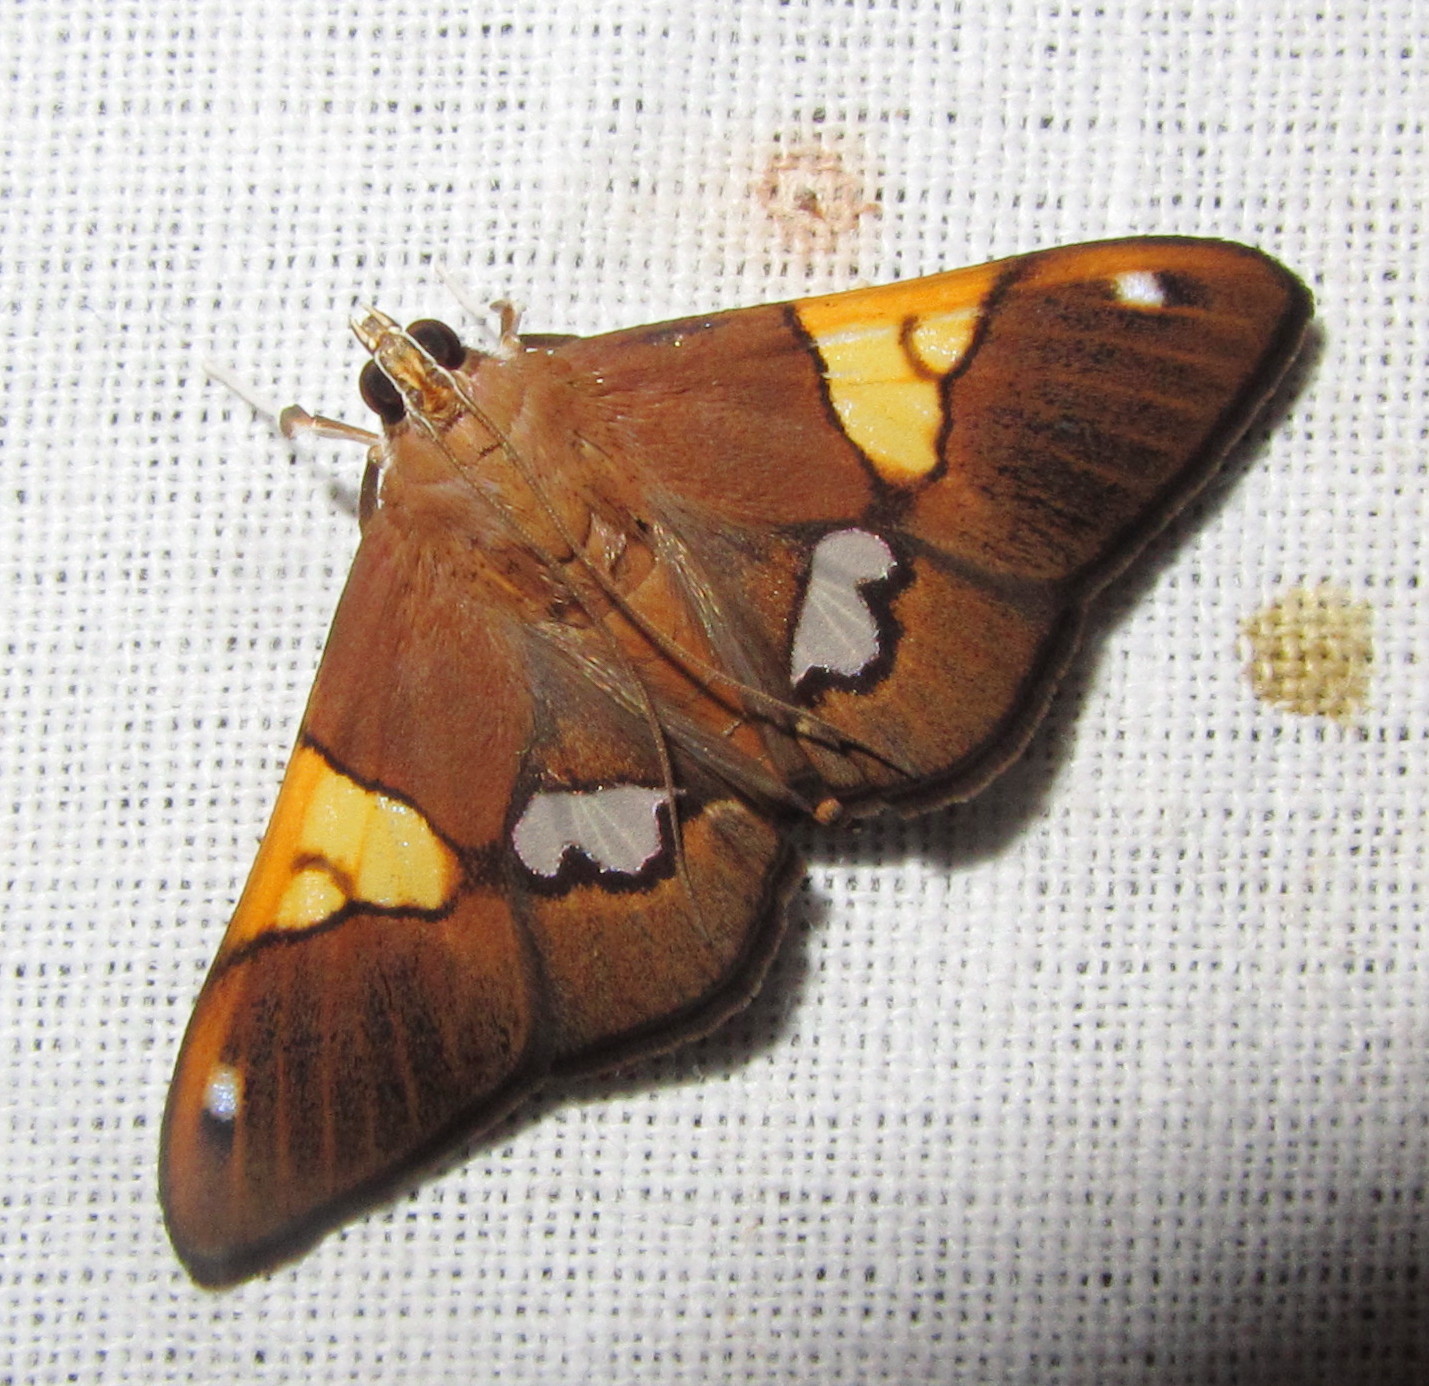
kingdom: Animalia
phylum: Arthropoda
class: Insecta
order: Lepidoptera
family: Crambidae
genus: Heterocnephes
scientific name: Heterocnephes lymphatalis
